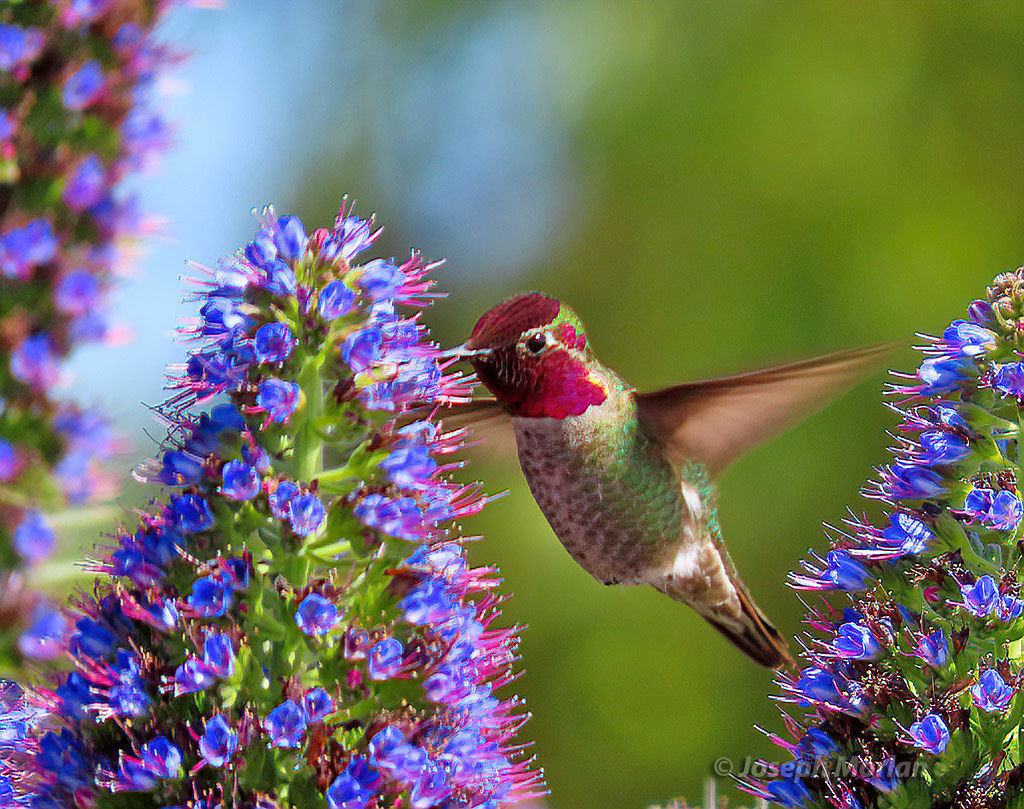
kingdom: Animalia
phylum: Chordata
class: Aves
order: Apodiformes
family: Trochilidae
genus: Calypte
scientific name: Calypte anna
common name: Anna's hummingbird
